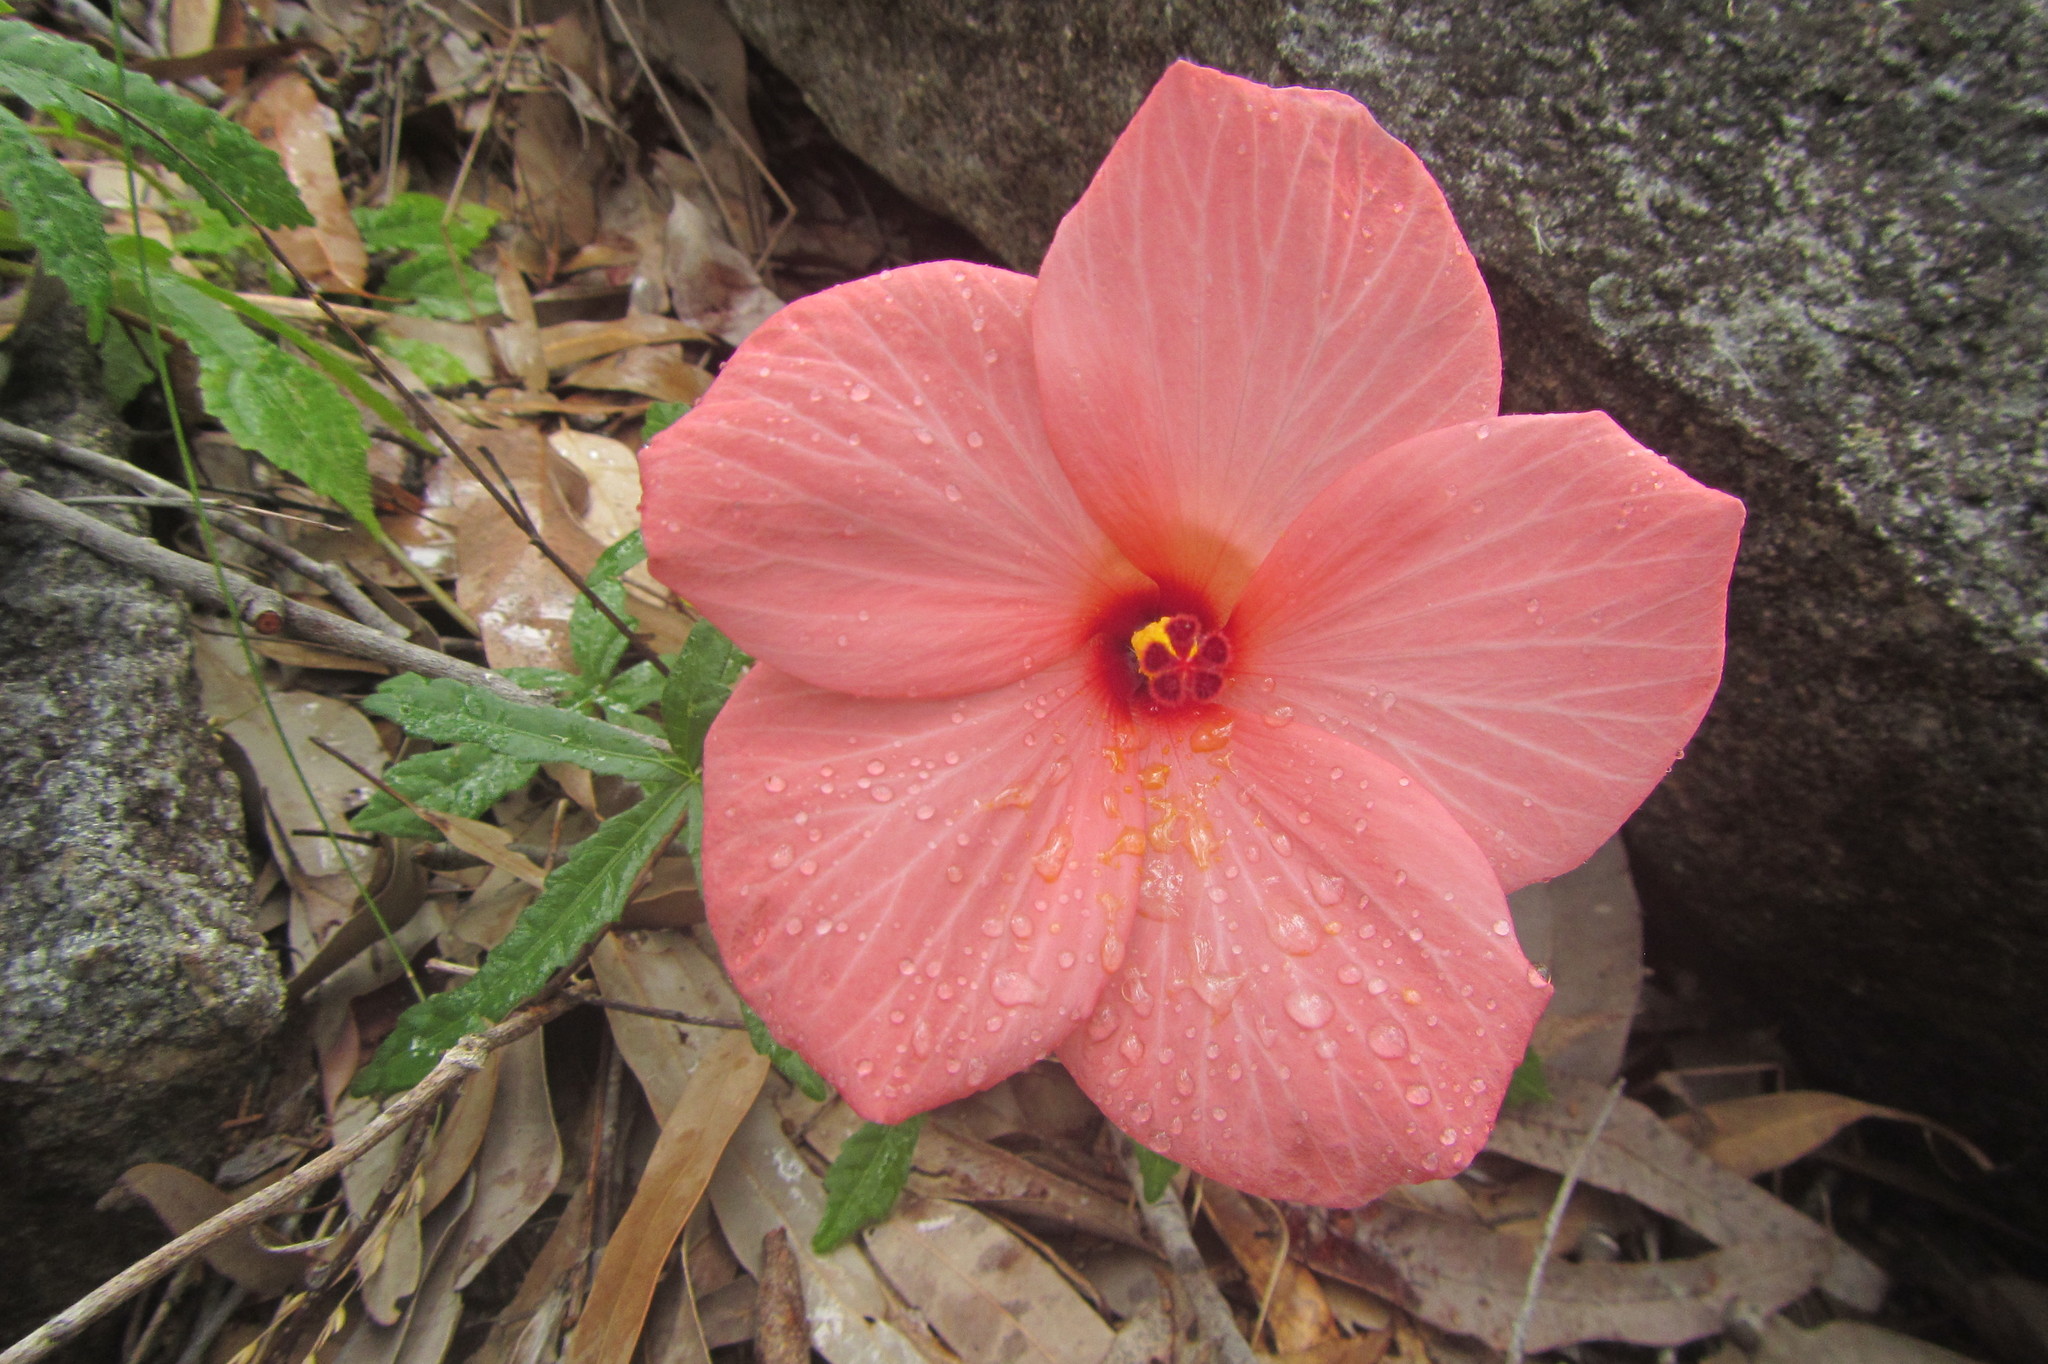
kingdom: Plantae
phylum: Tracheophyta
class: Magnoliopsida
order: Malvales
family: Malvaceae
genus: Abelmoschus
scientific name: Abelmoschus sagittifolius
